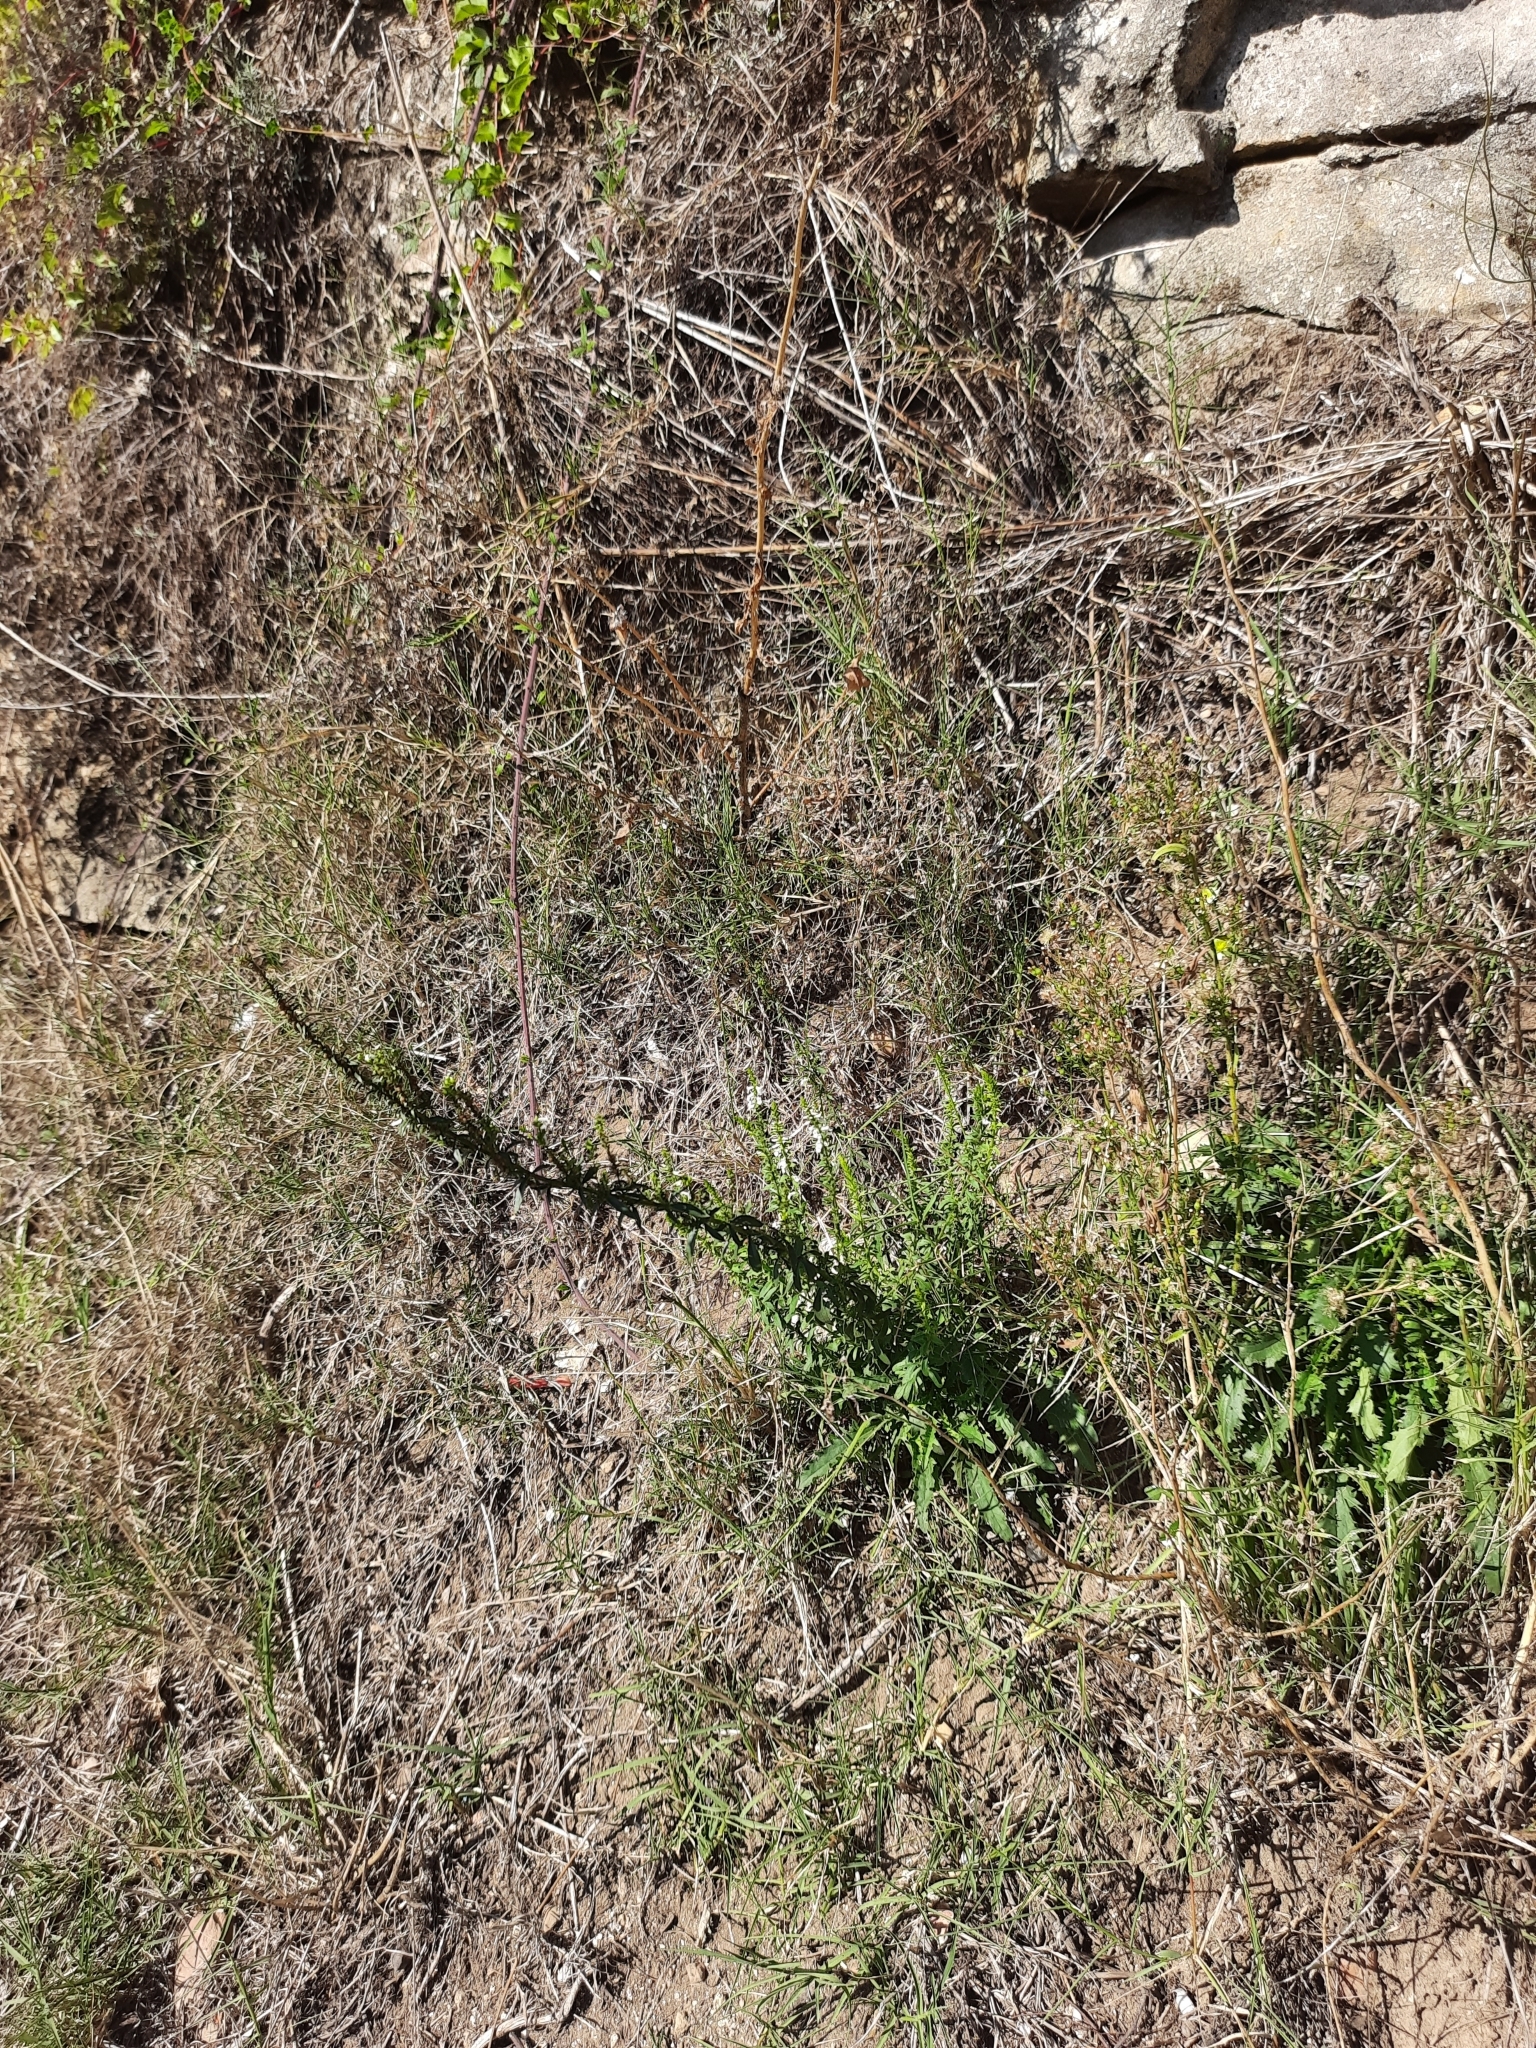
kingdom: Plantae
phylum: Tracheophyta
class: Magnoliopsida
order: Lamiales
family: Plantaginaceae
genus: Anarrhinum
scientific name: Anarrhinum duriminium
